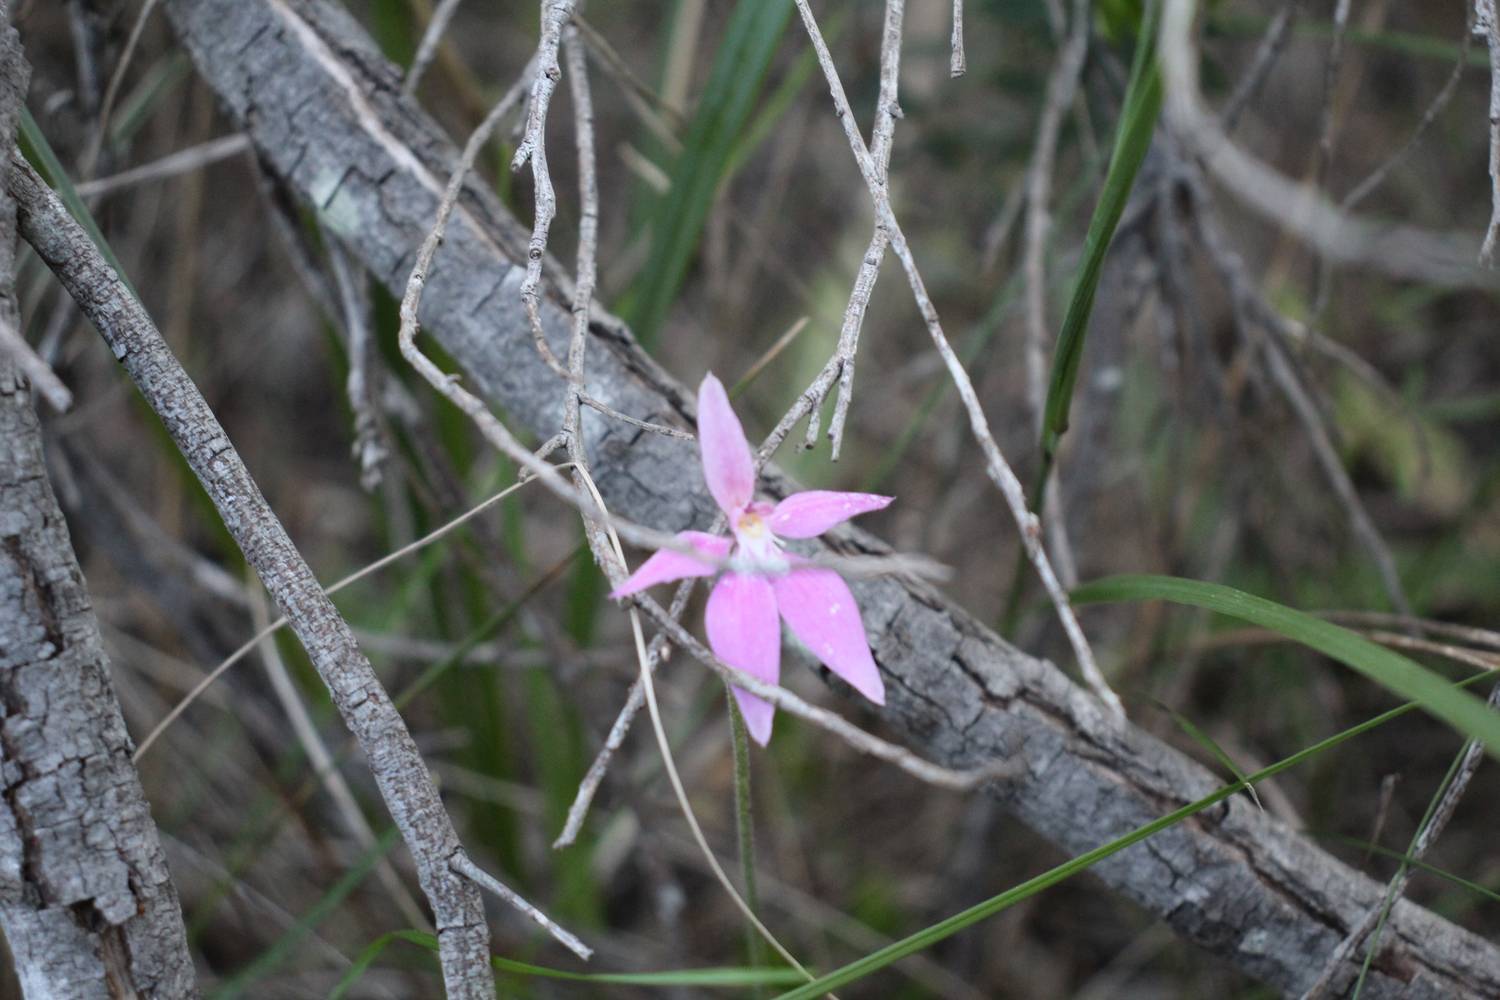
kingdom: Plantae
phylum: Tracheophyta
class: Liliopsida
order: Asparagales
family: Orchidaceae
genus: Caladenia
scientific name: Caladenia latifolia
